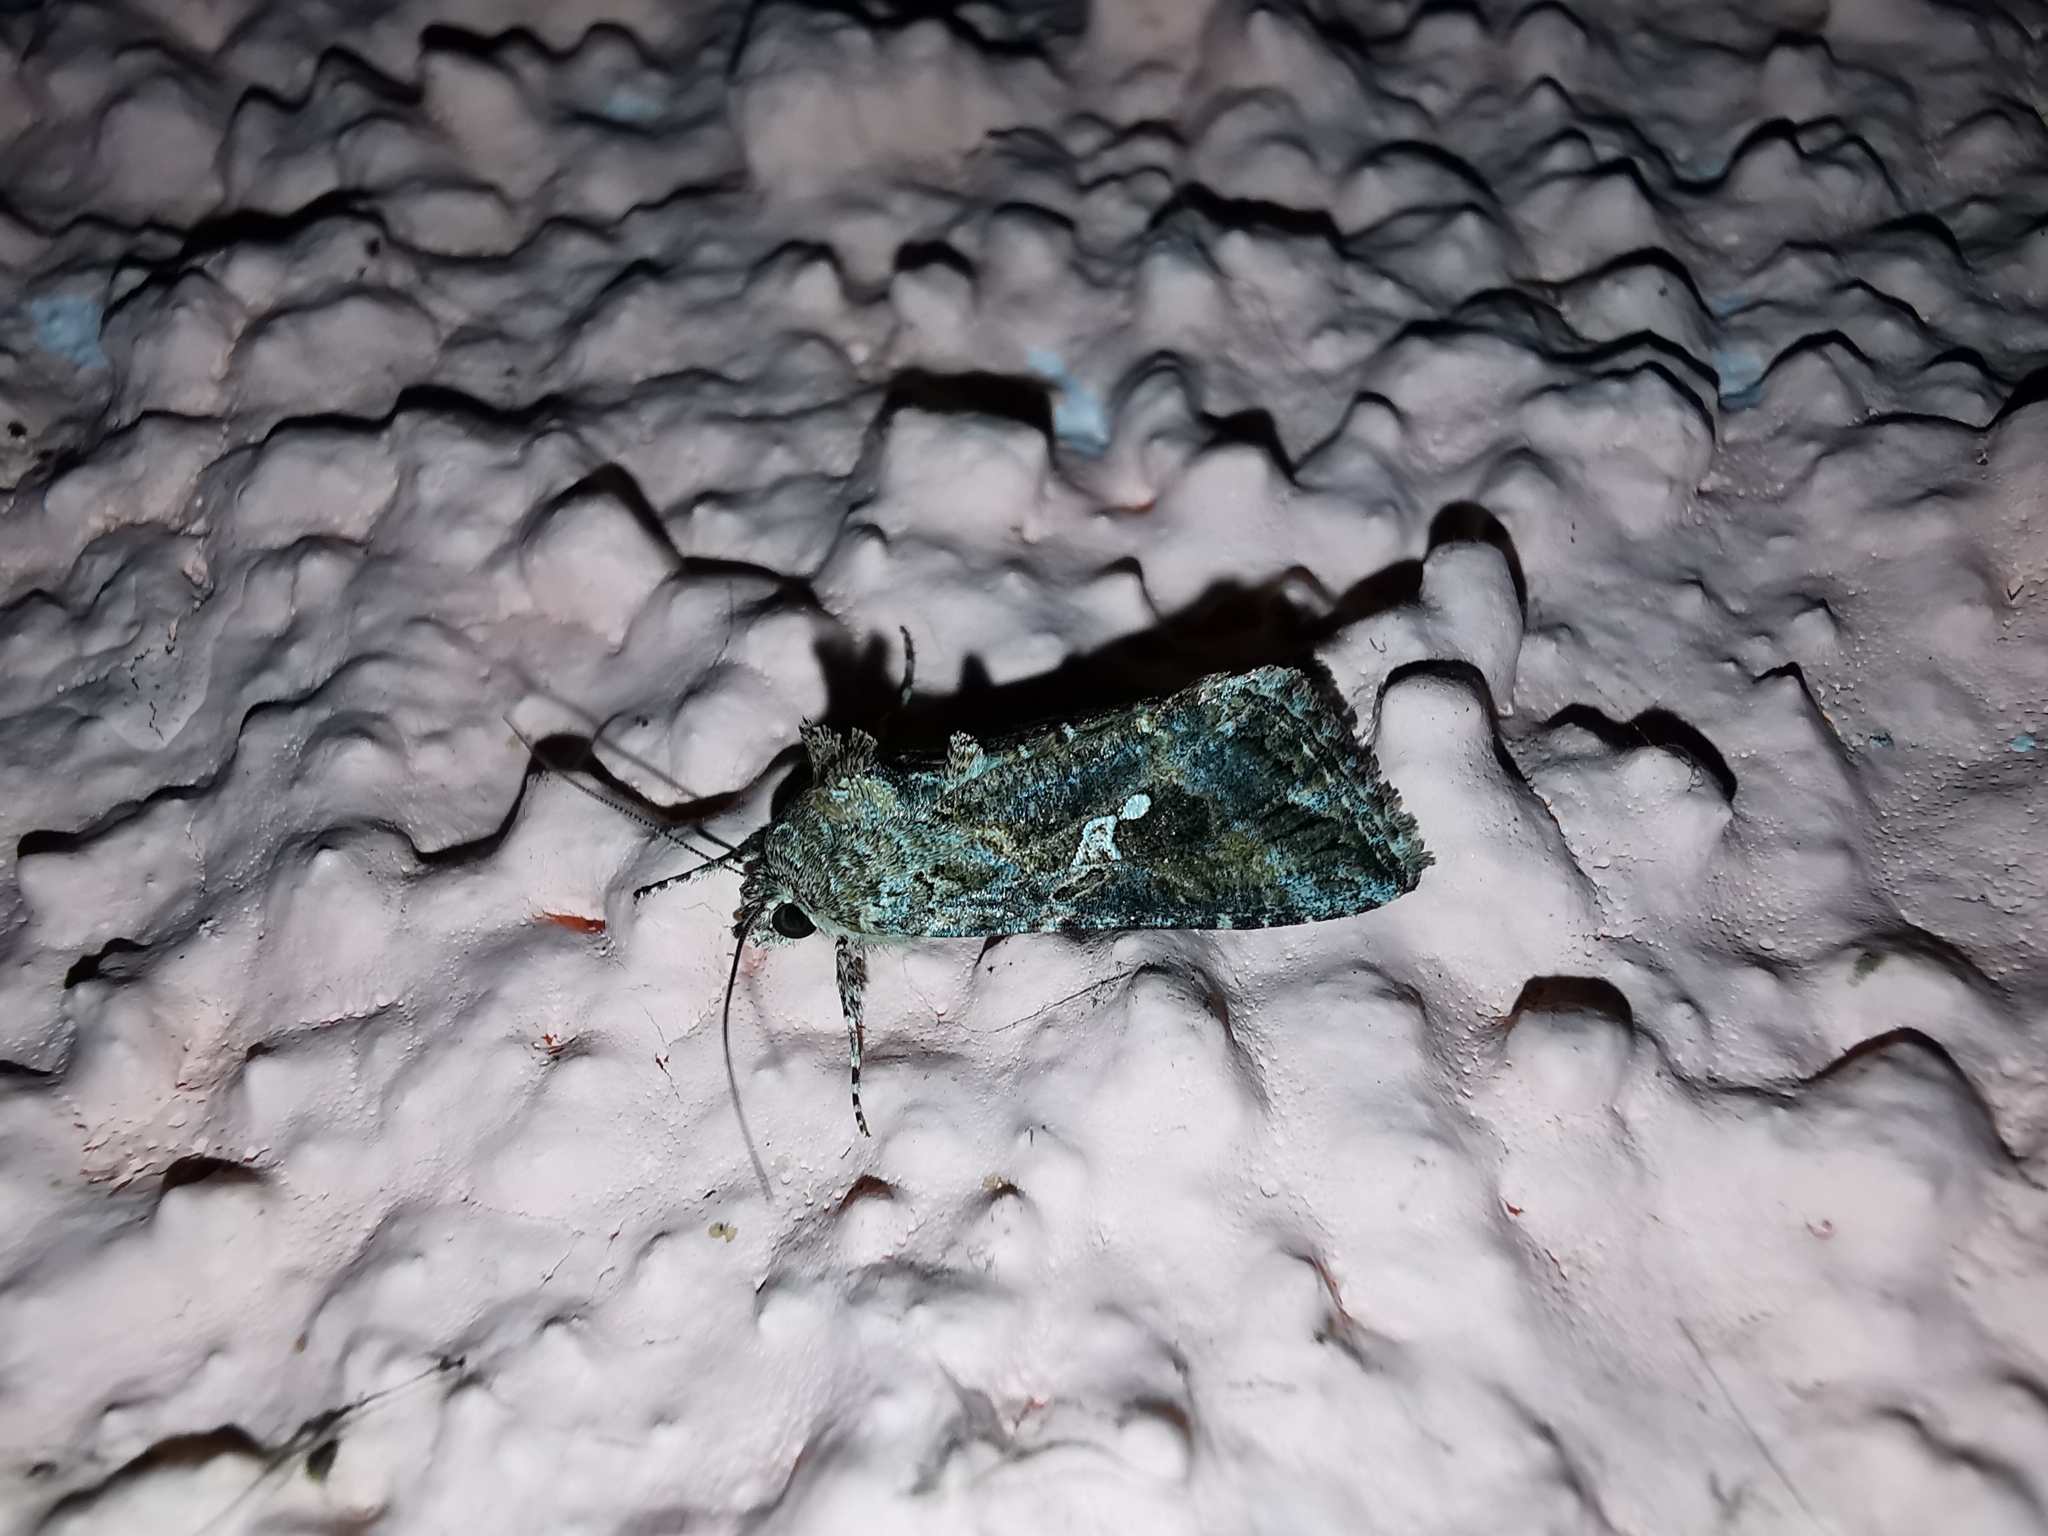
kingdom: Animalia
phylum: Arthropoda
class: Insecta
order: Lepidoptera
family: Noctuidae
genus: Trichoplusia
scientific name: Trichoplusia ni
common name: Ni moth
